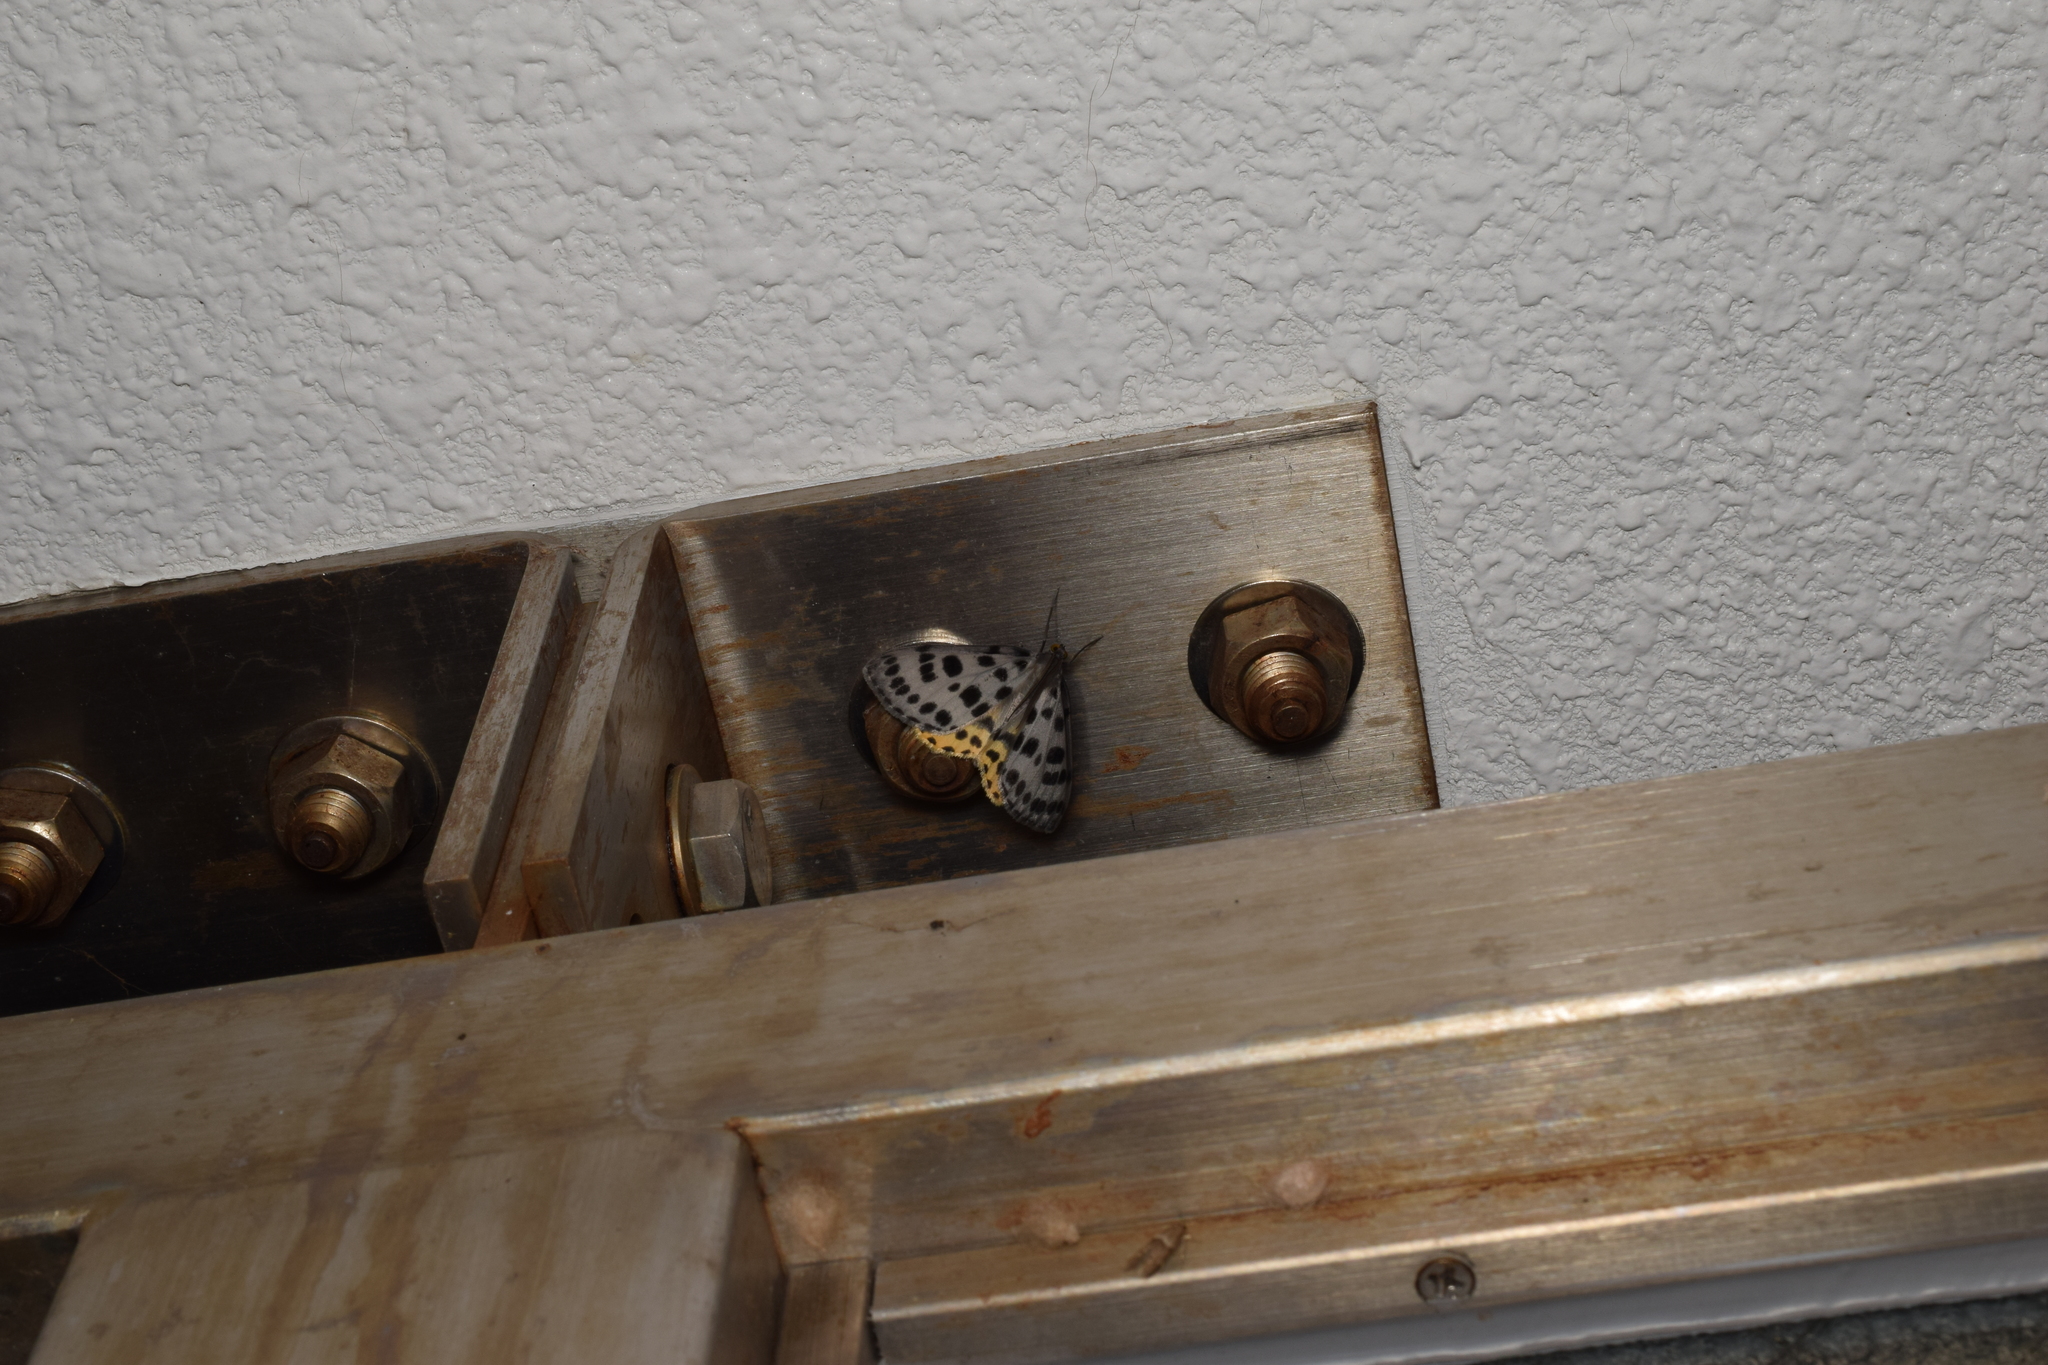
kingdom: Animalia
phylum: Arthropoda
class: Insecta
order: Lepidoptera
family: Geometridae
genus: Arichanna
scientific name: Arichanna
